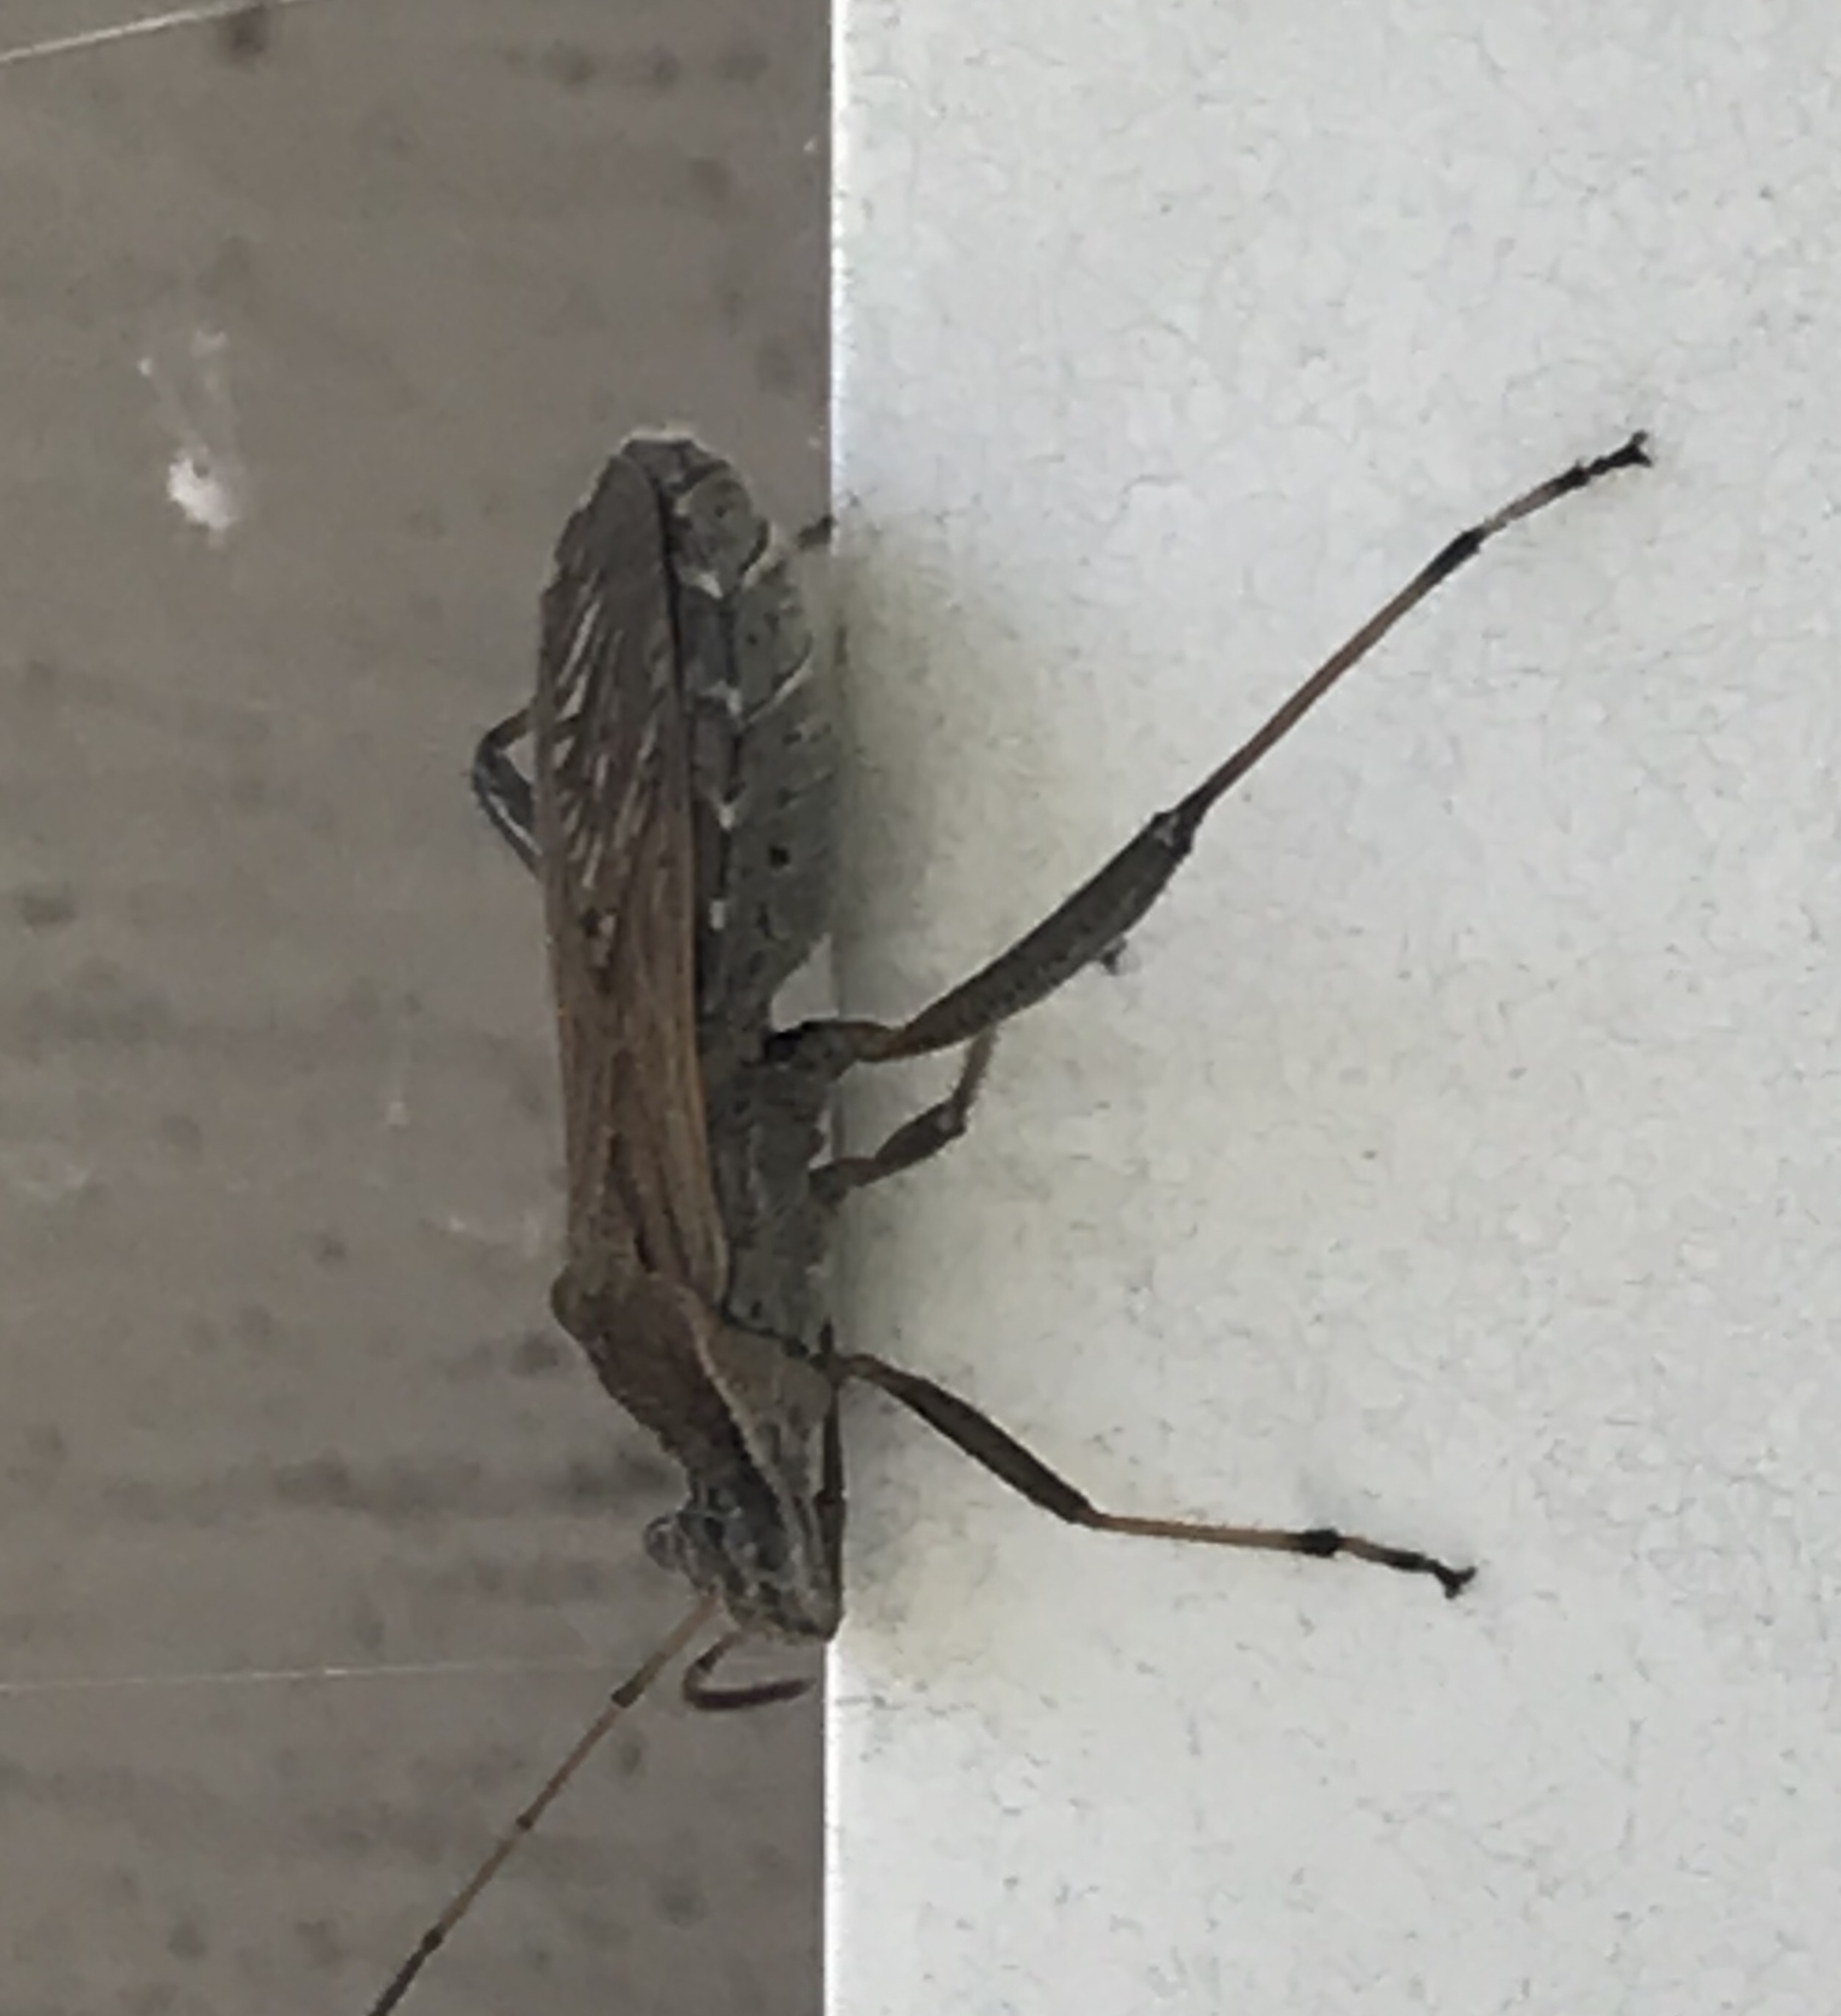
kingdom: Animalia
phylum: Arthropoda
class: Insecta
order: Hemiptera
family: Alydidae
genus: Alydus
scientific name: Alydus pilosulus
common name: Broad-headed bug
